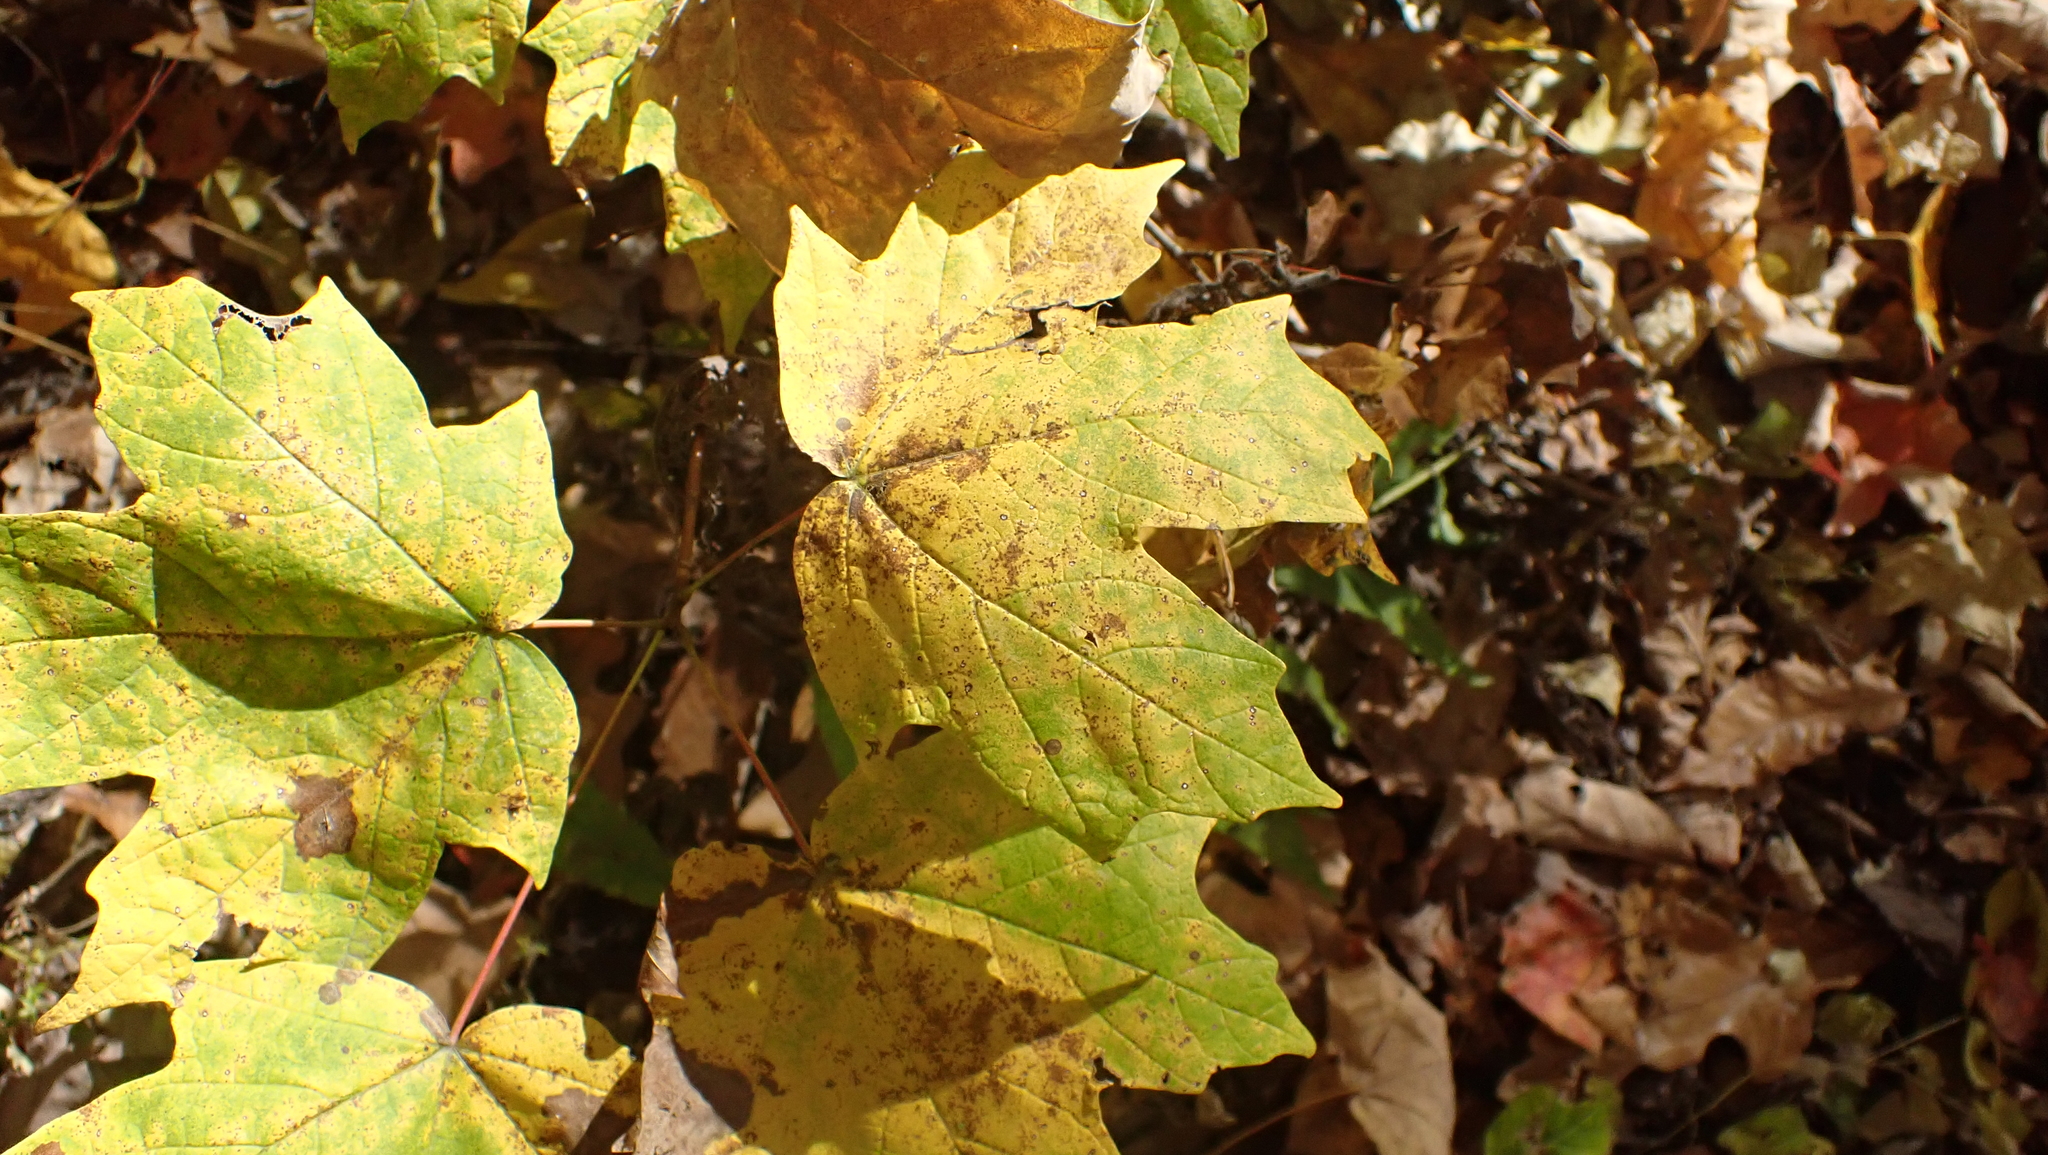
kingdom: Plantae
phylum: Tracheophyta
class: Magnoliopsida
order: Sapindales
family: Sapindaceae
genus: Acer
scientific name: Acer saccharum
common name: Sugar maple
